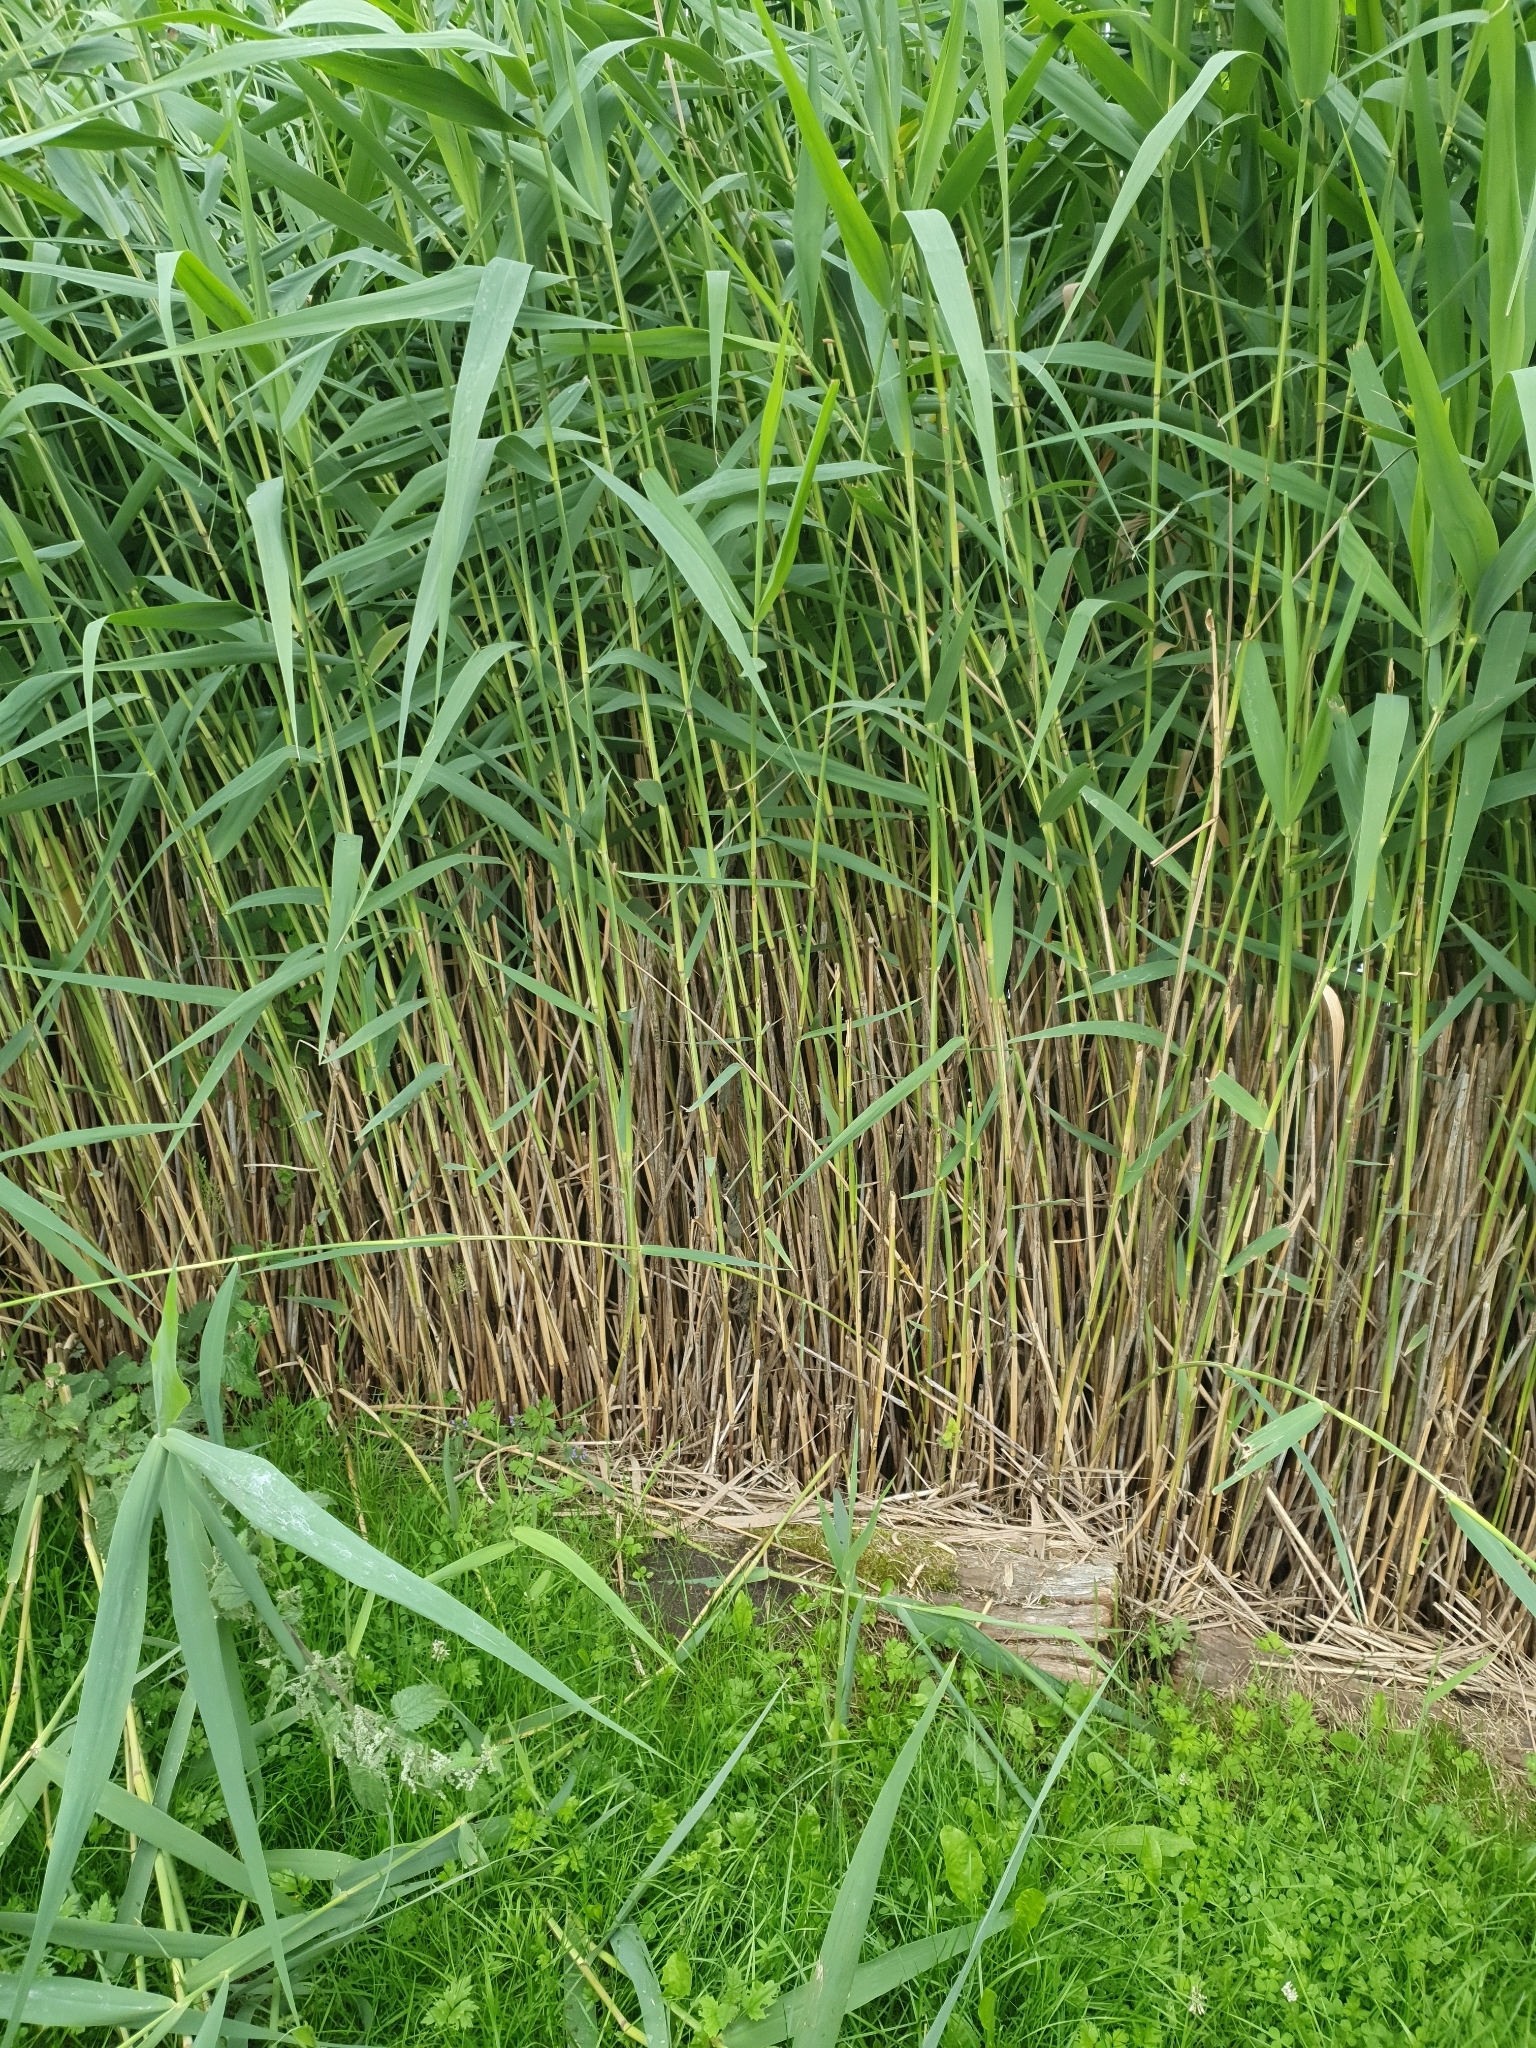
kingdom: Plantae
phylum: Tracheophyta
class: Liliopsida
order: Poales
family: Poaceae
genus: Phragmites
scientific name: Phragmites australis
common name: Common reed
